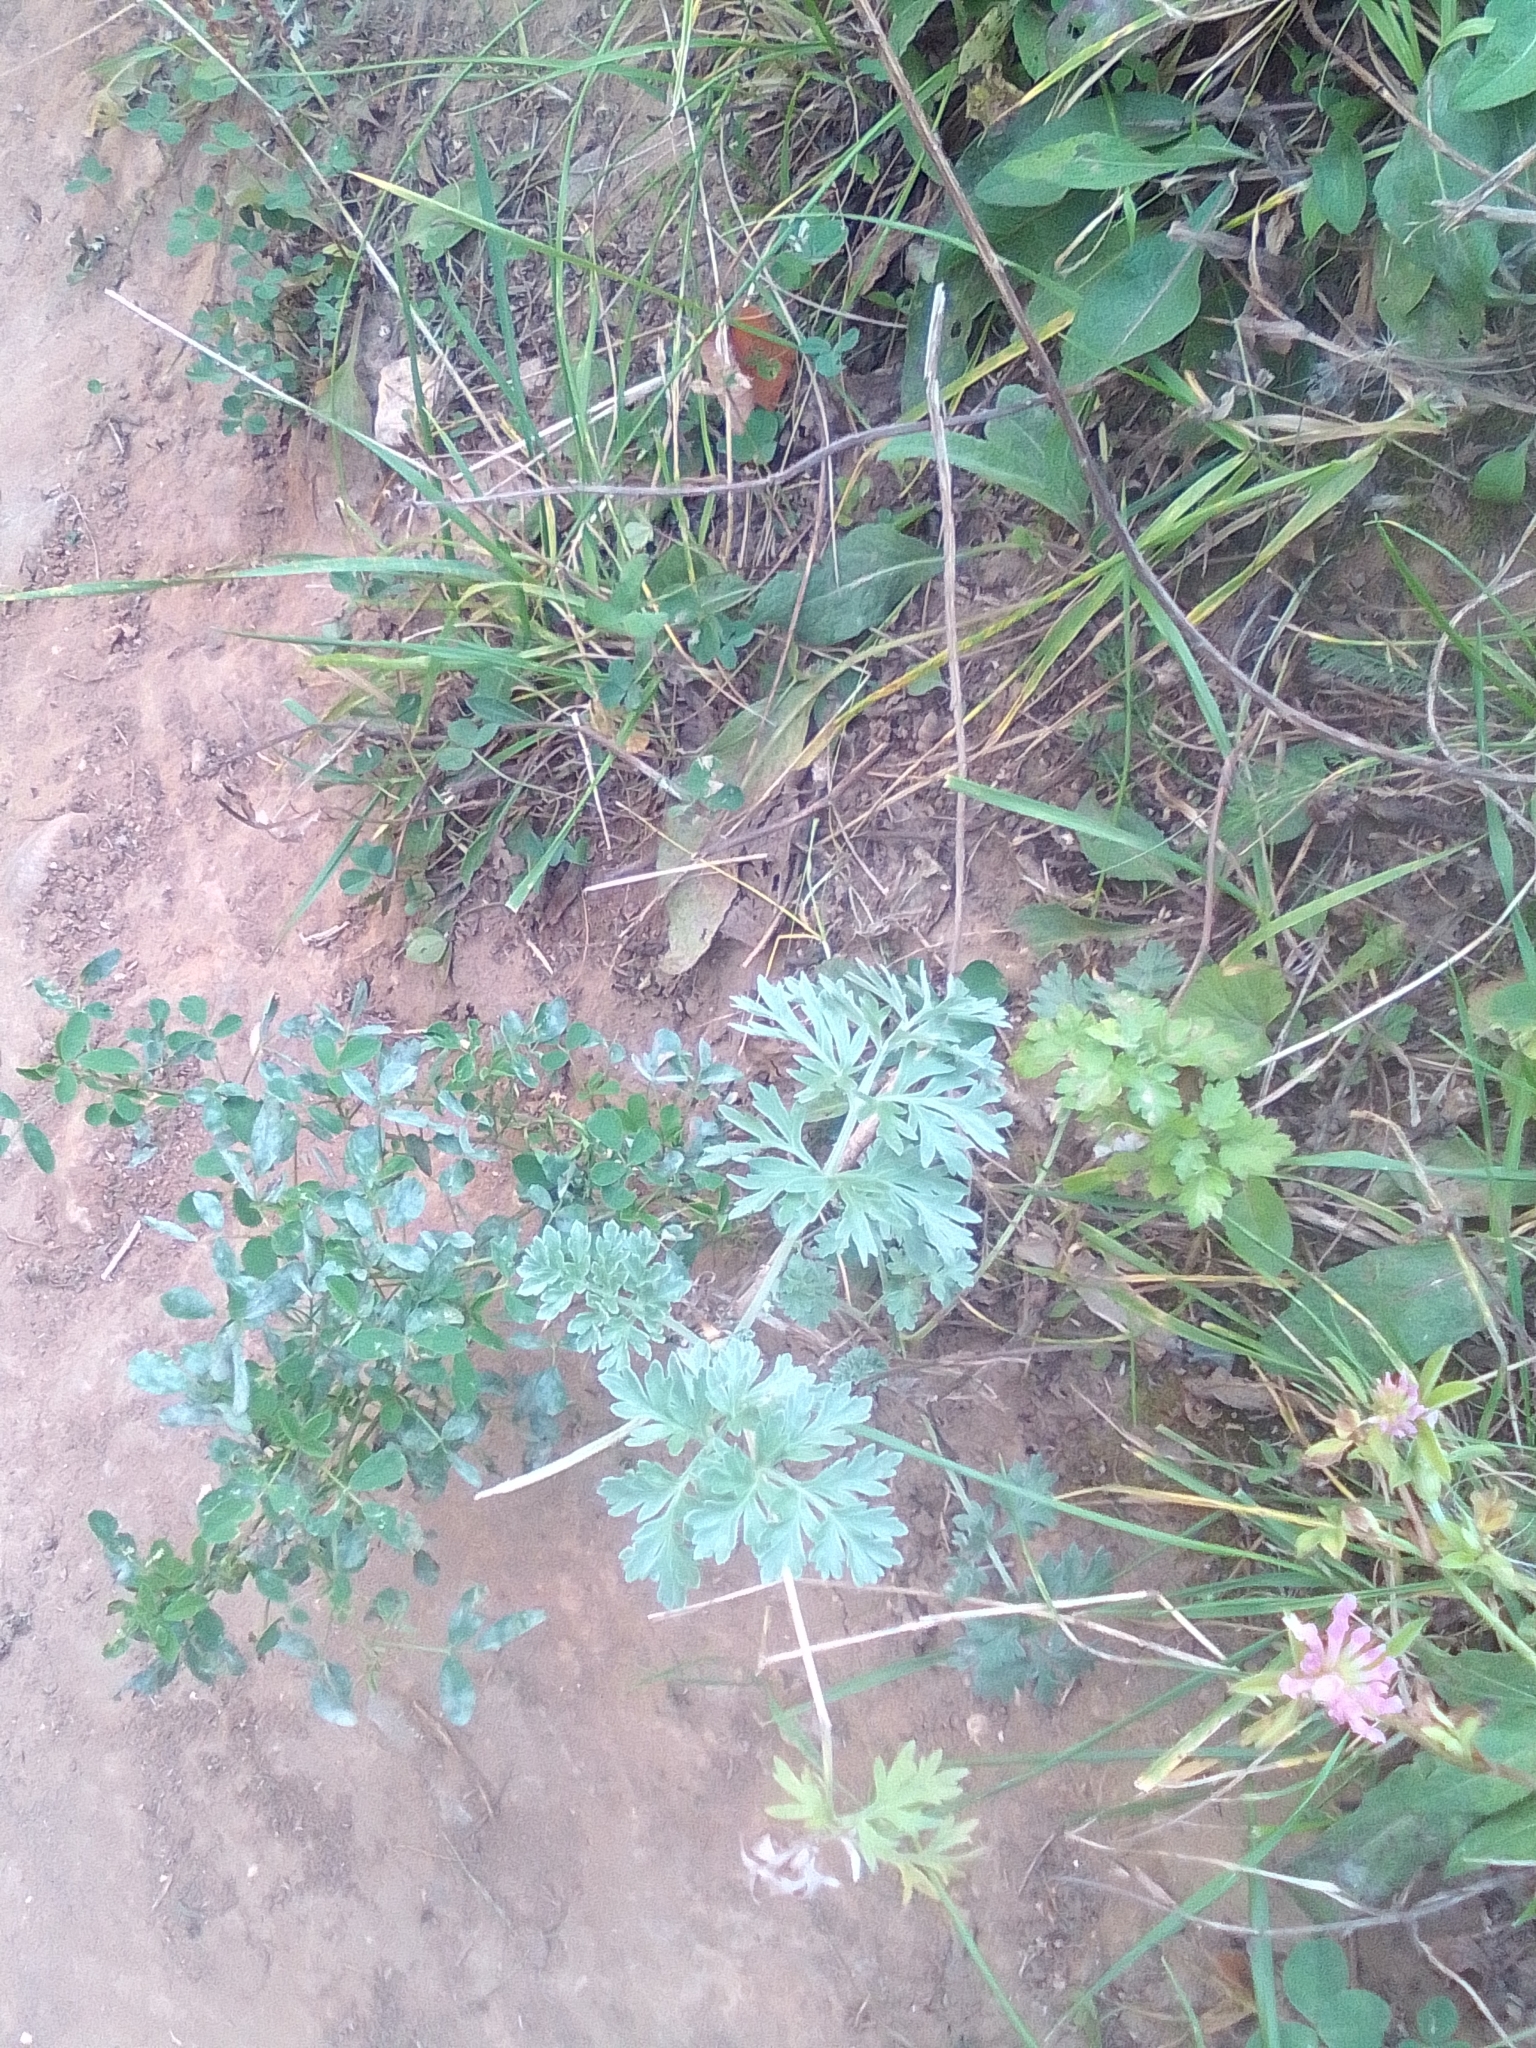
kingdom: Plantae
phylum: Tracheophyta
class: Magnoliopsida
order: Asterales
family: Asteraceae
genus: Artemisia
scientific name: Artemisia absinthium
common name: Wormwood
